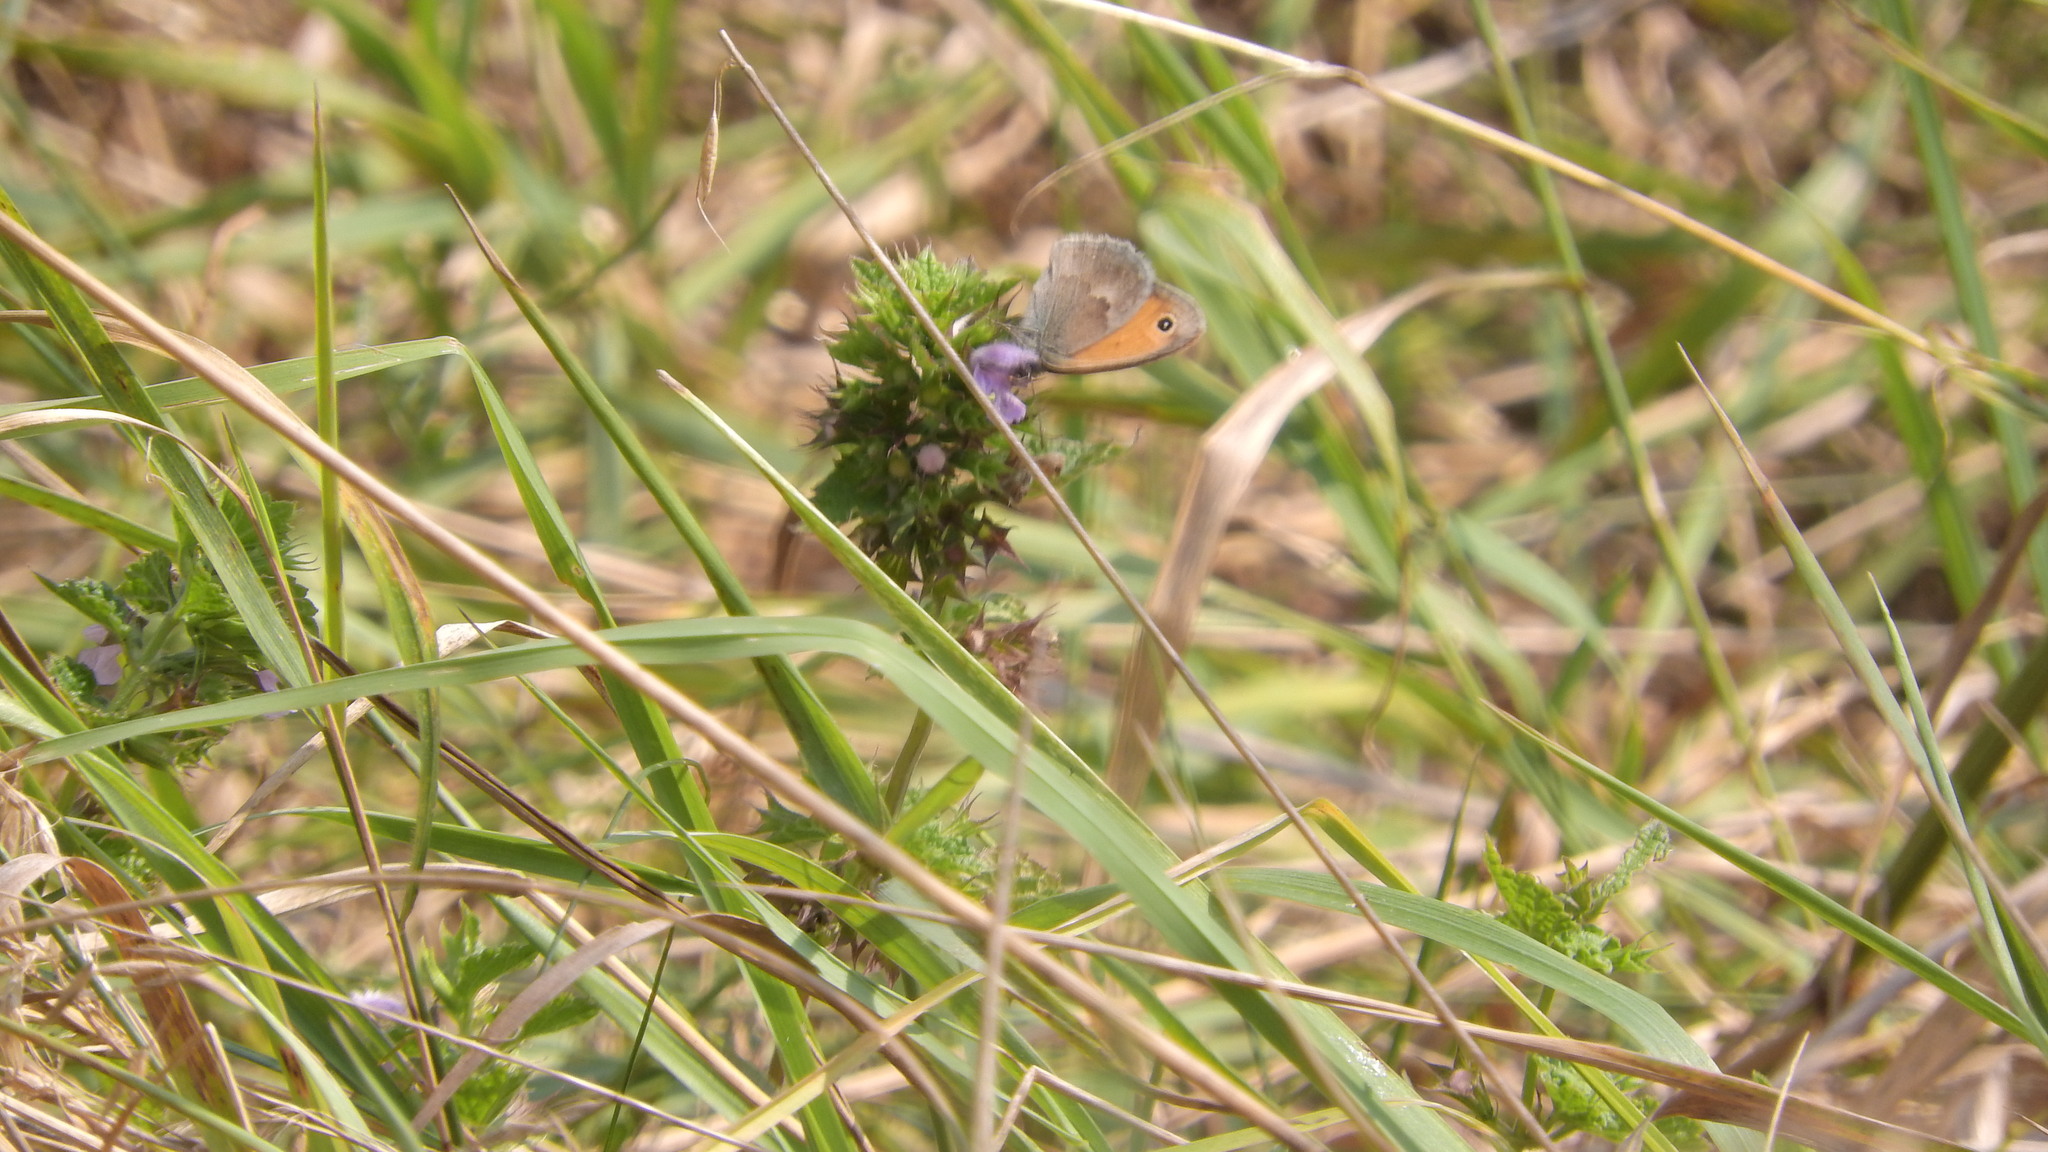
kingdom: Animalia
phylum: Arthropoda
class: Insecta
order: Lepidoptera
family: Nymphalidae
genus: Coenonympha
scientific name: Coenonympha pamphilus
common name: Small heath
